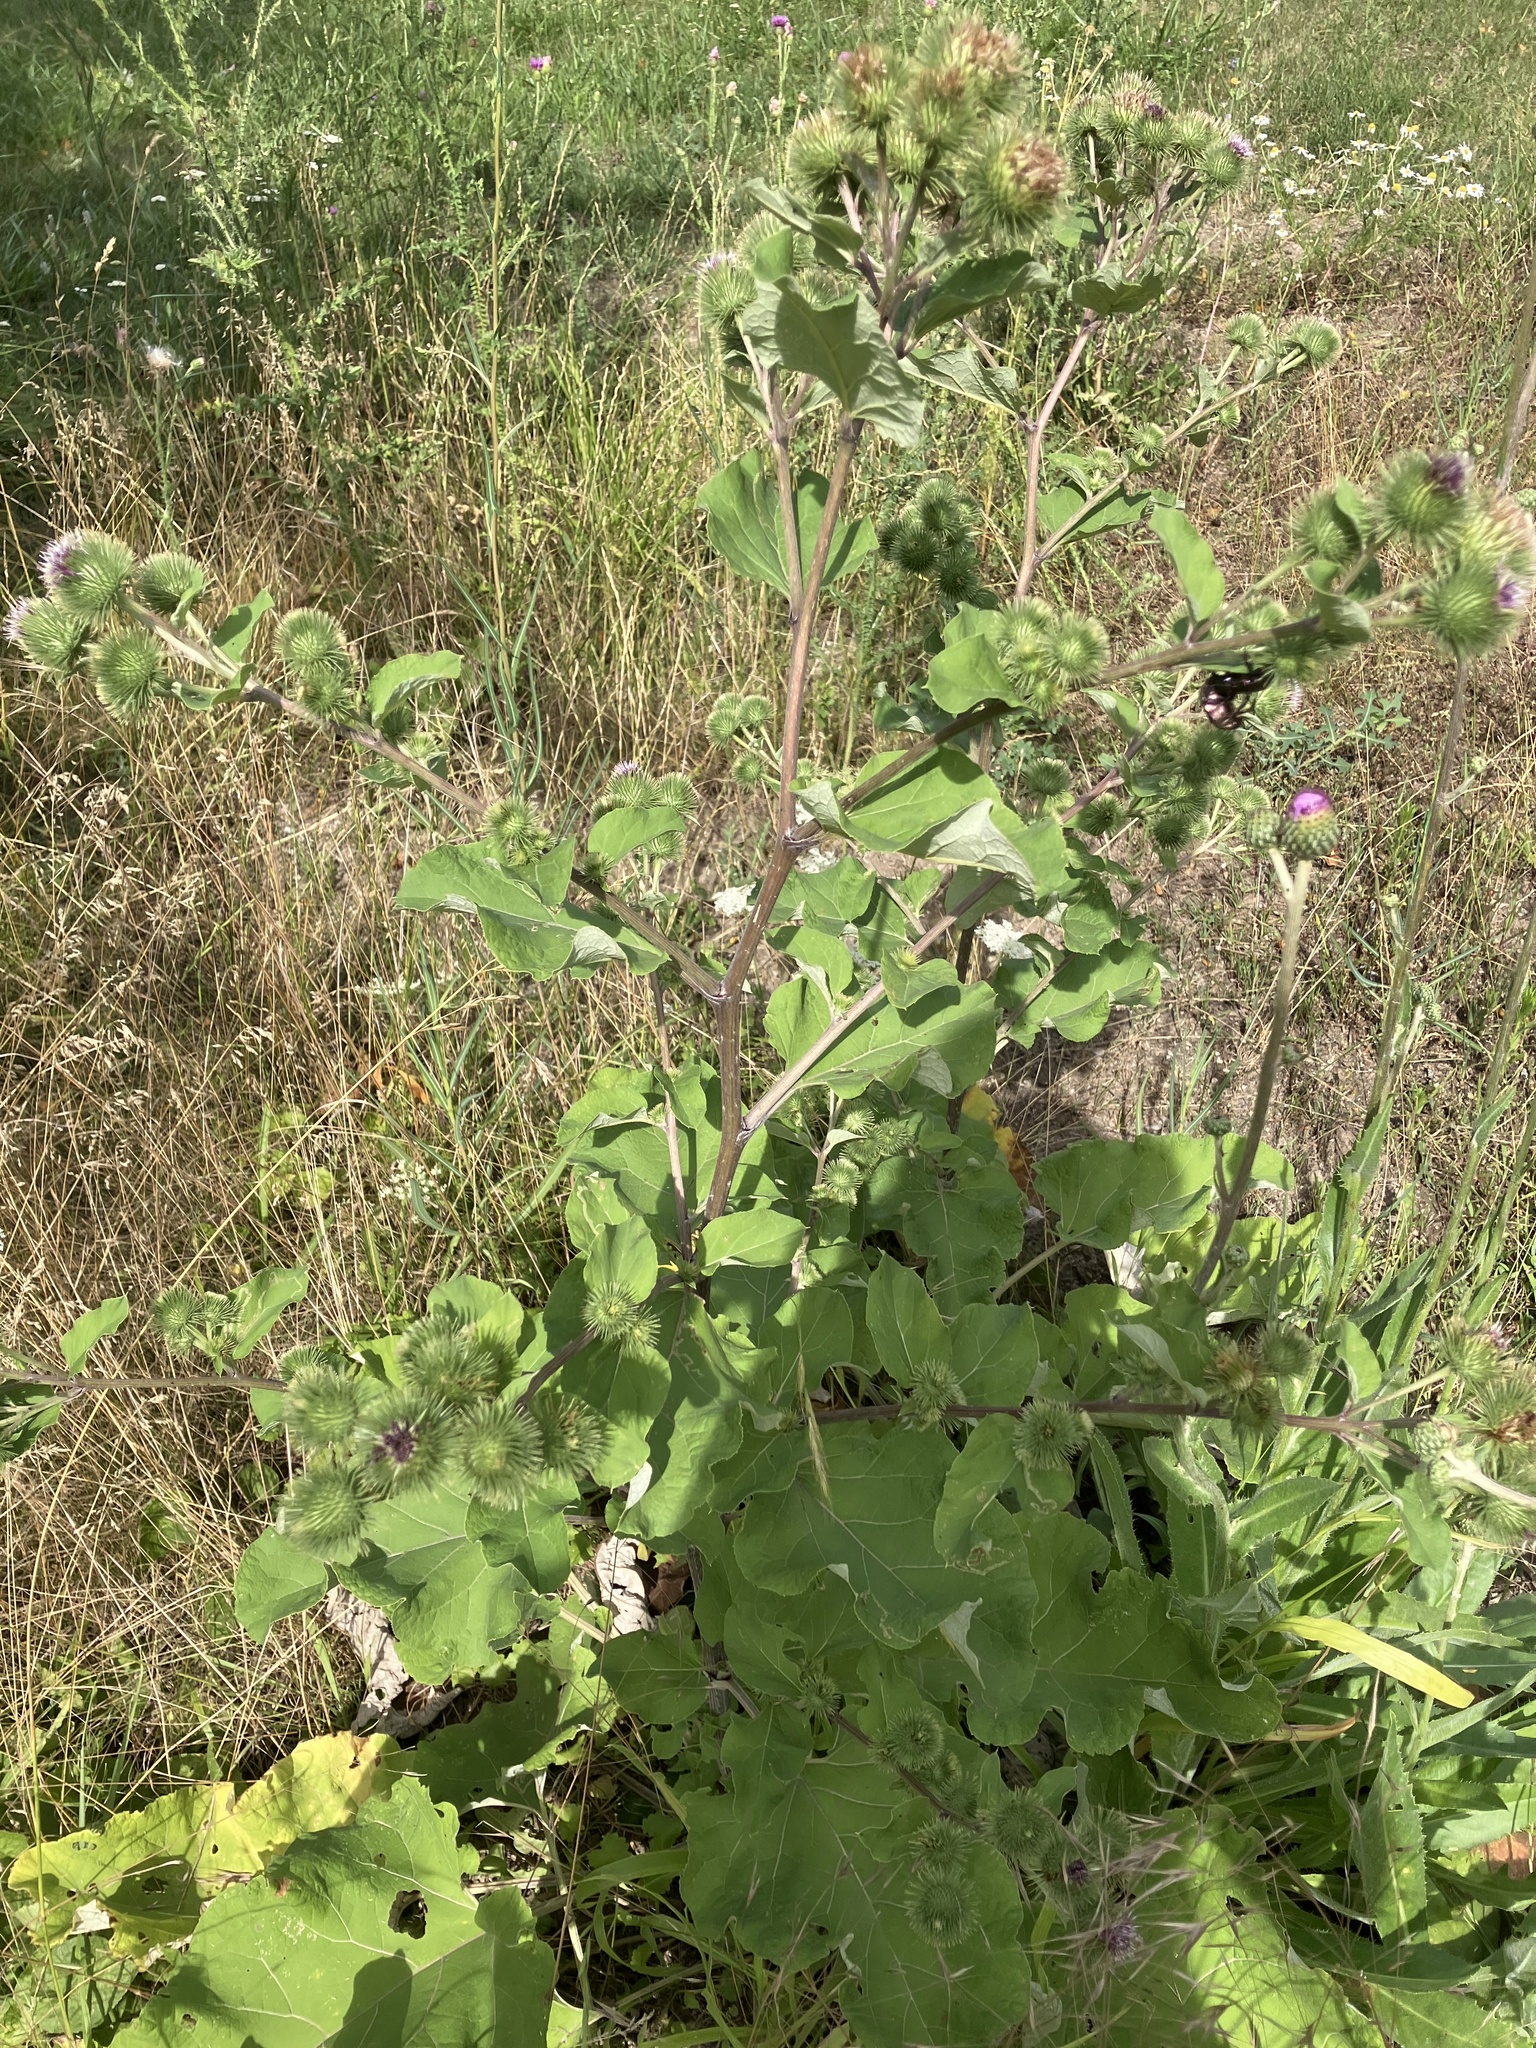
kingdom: Plantae
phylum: Tracheophyta
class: Magnoliopsida
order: Asterales
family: Asteraceae
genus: Arctium
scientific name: Arctium lappa
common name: Greater burdock
